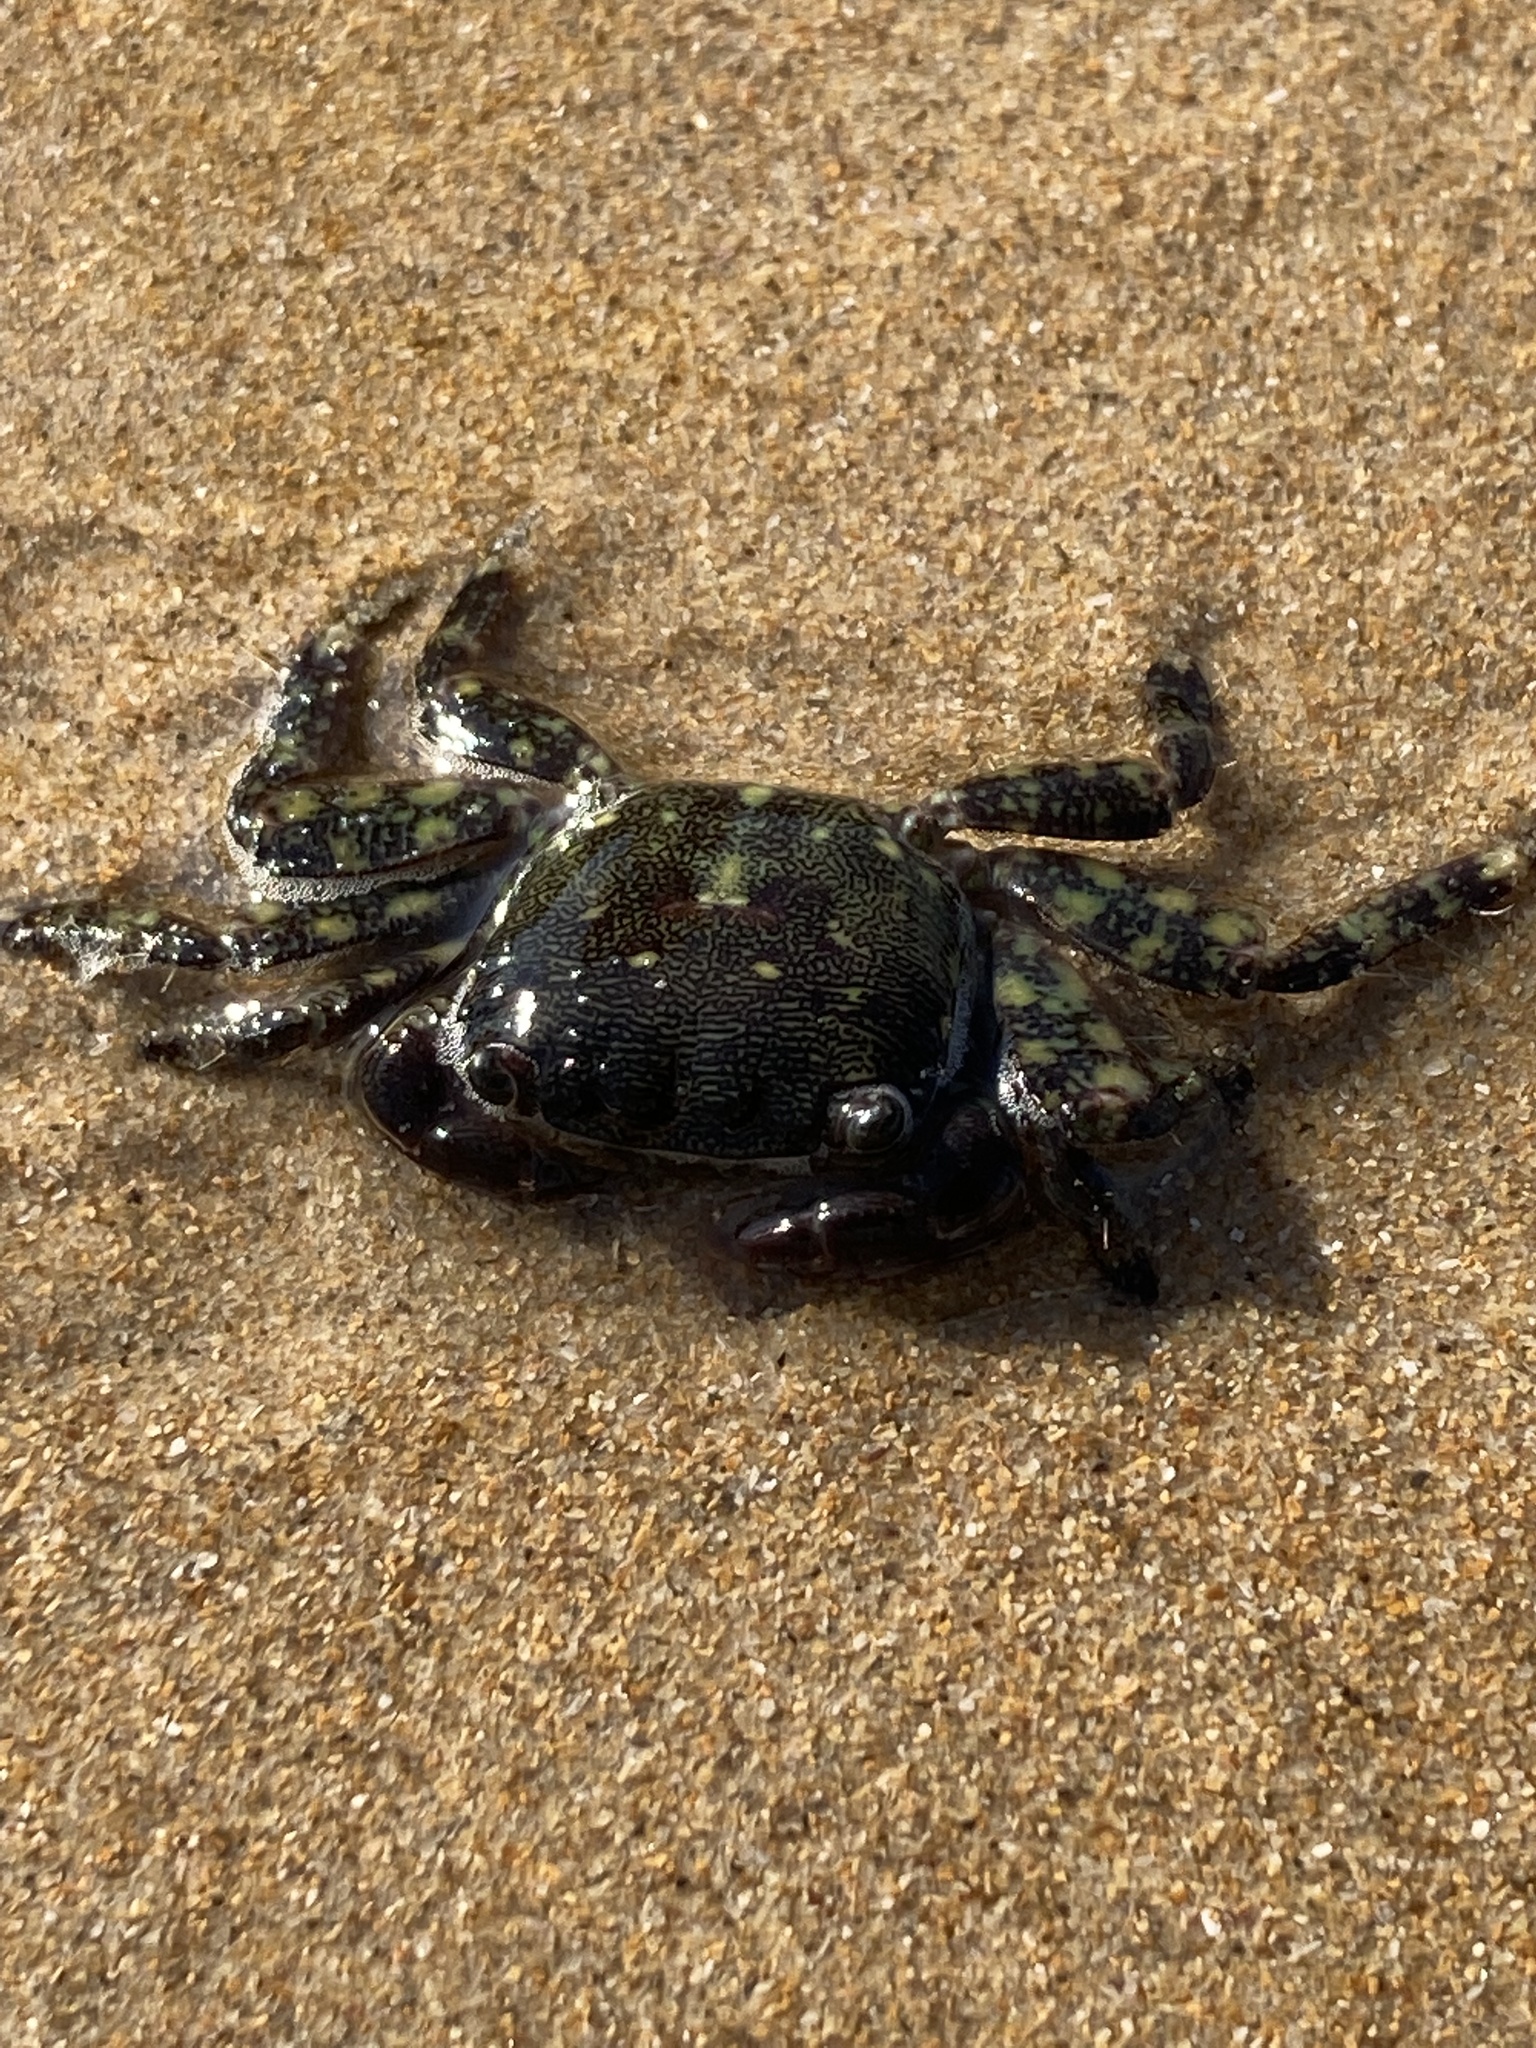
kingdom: Animalia
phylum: Arthropoda
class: Malacostraca
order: Decapoda
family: Grapsidae
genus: Pachygrapsus
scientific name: Pachygrapsus marmoratus
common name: Marbled rock crab
